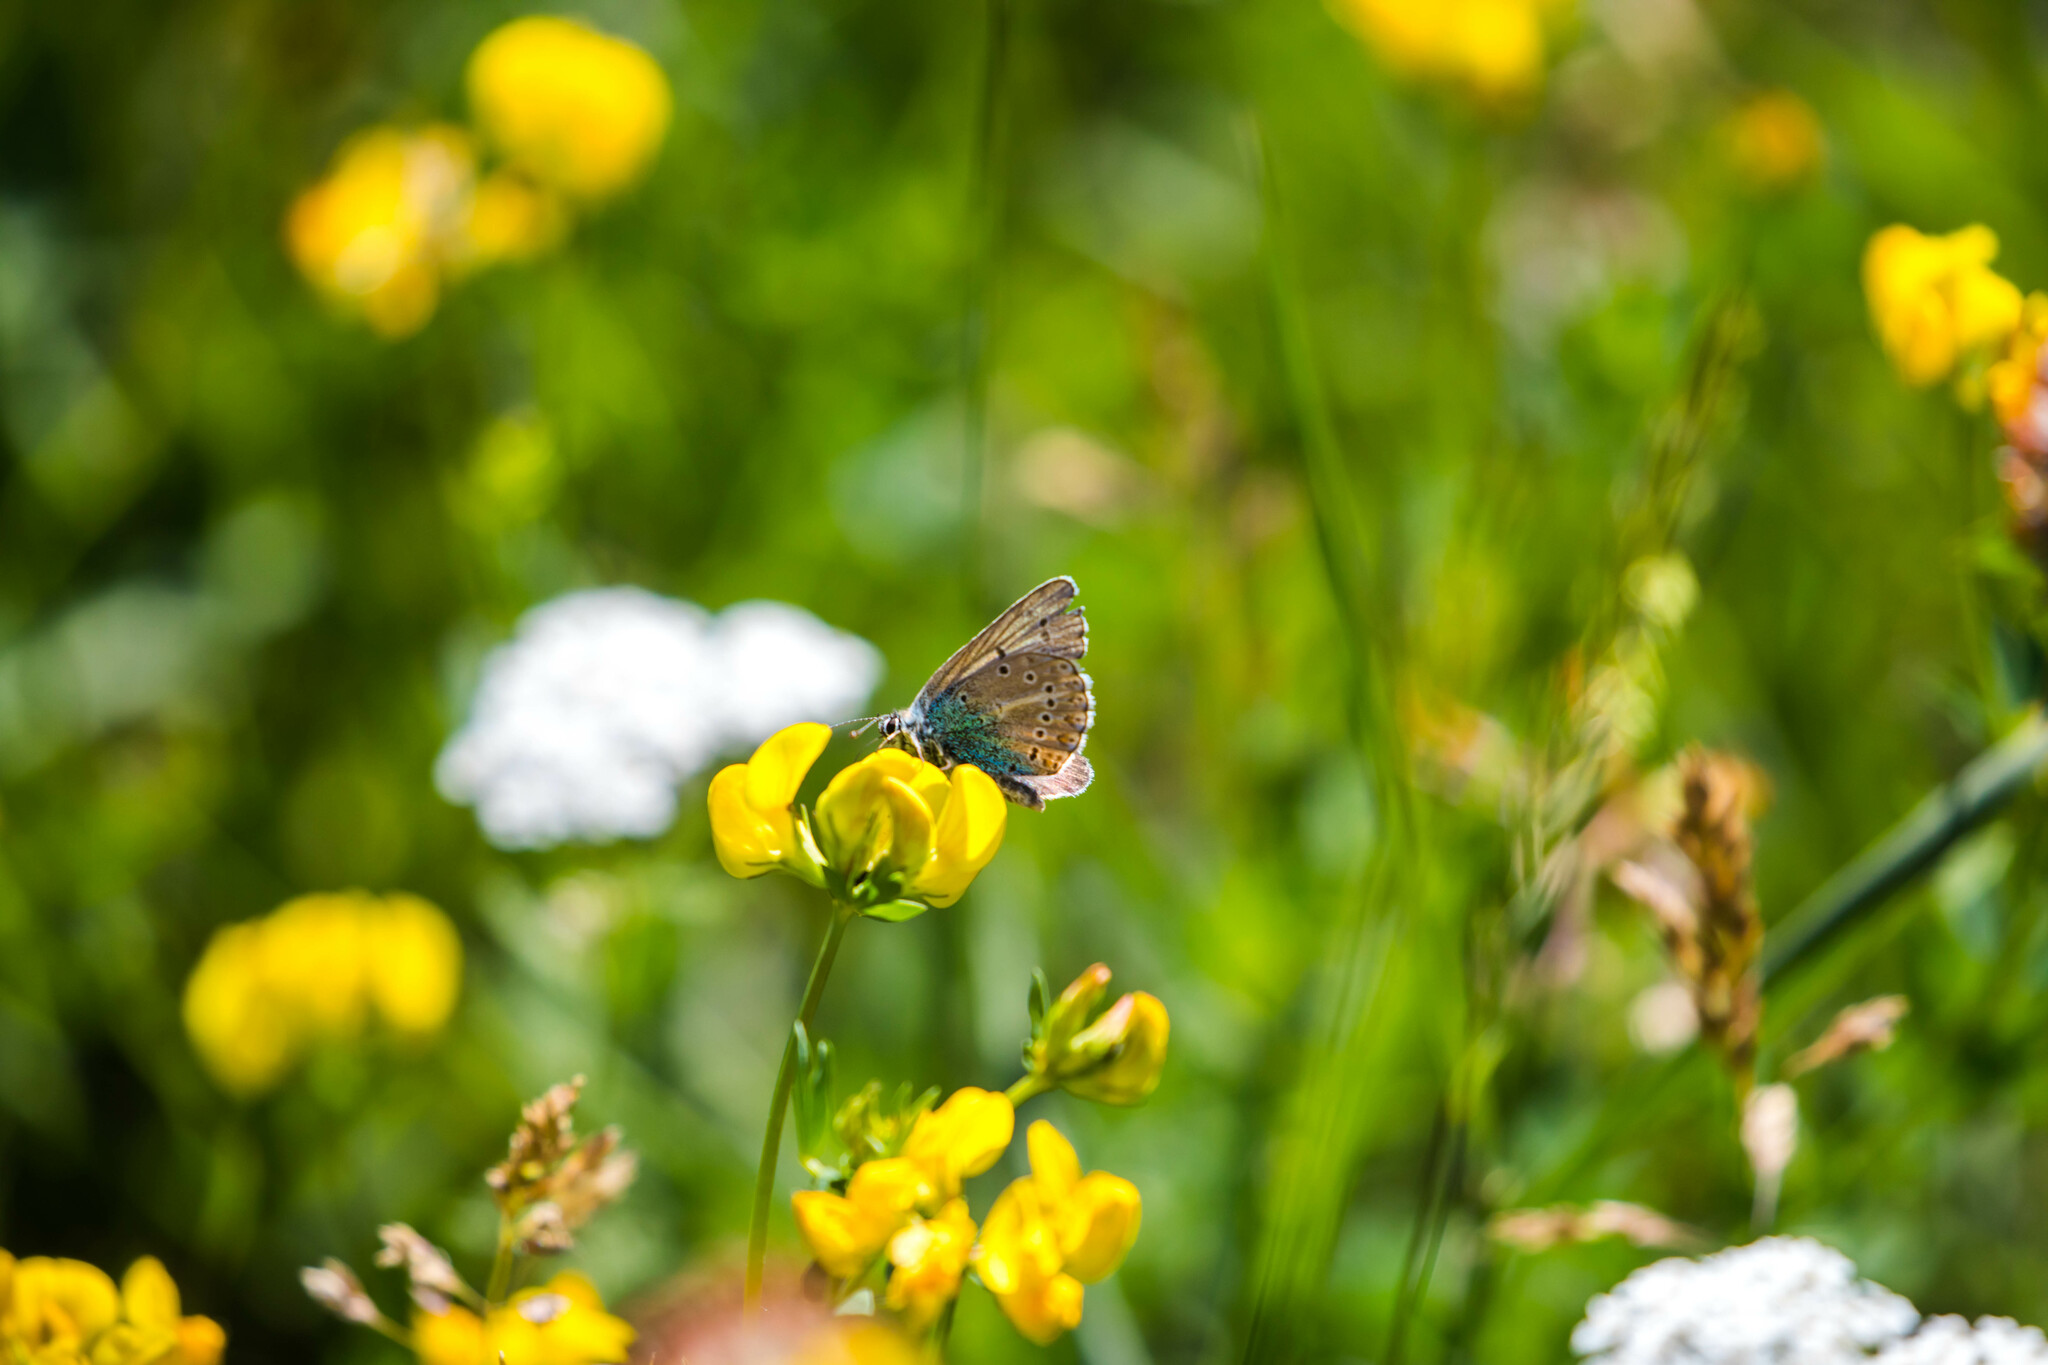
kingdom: Animalia
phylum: Arthropoda
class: Insecta
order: Lepidoptera
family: Lycaenidae
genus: Eumedonia
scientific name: Eumedonia eumedon
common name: Geranium argus
